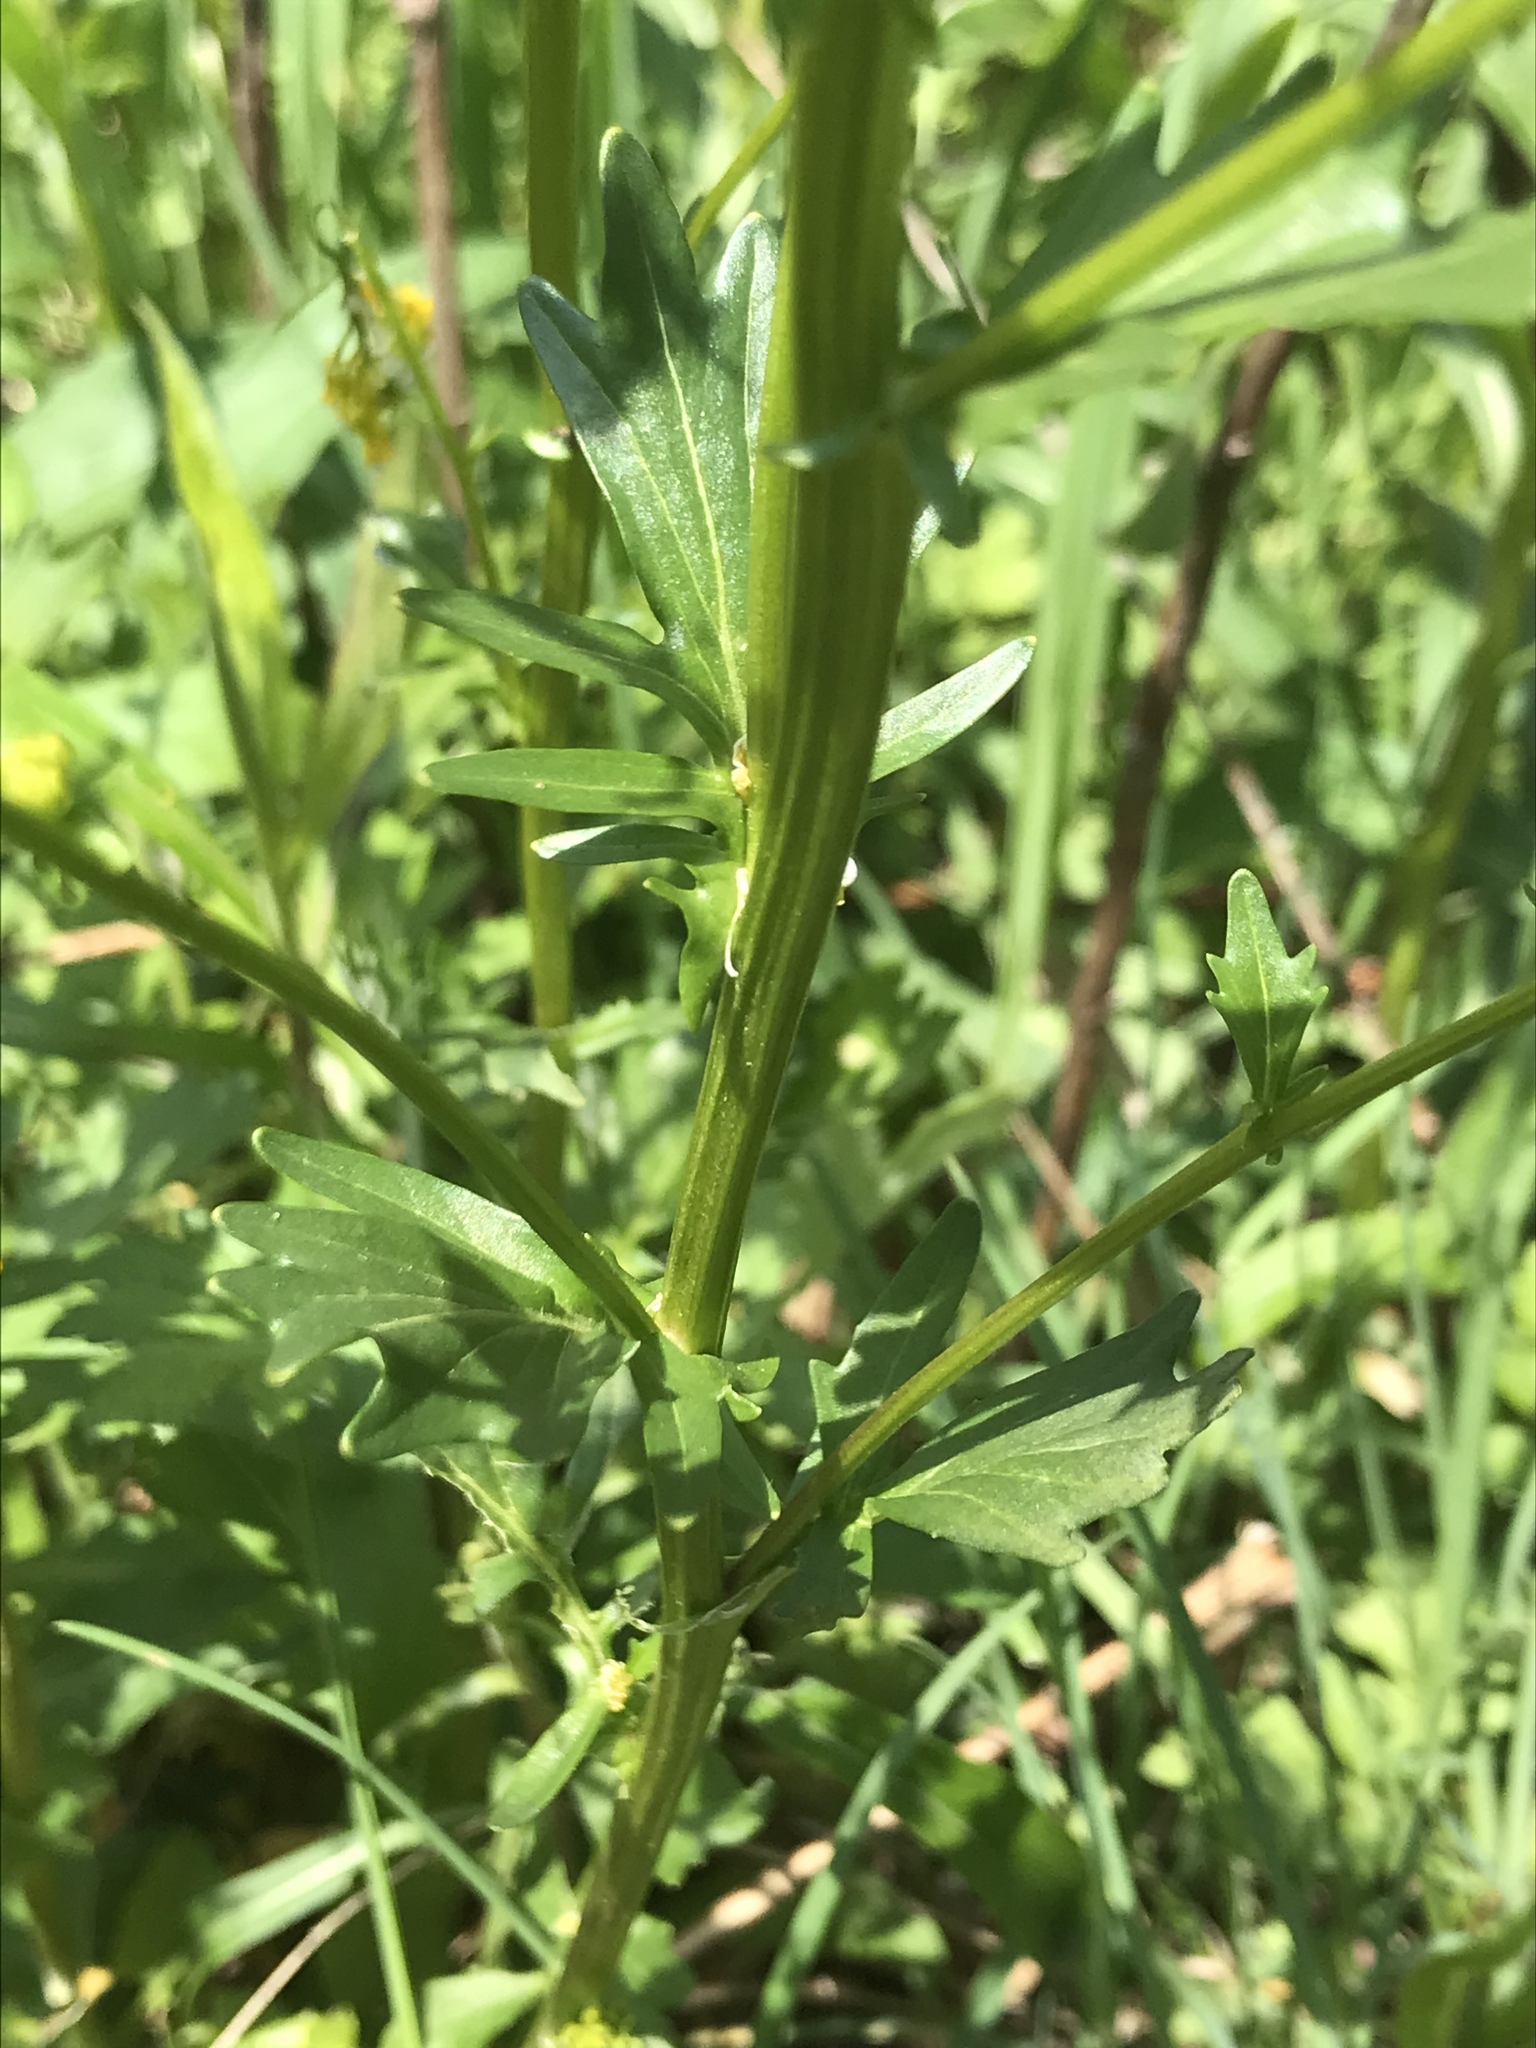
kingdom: Plantae
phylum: Tracheophyta
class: Magnoliopsida
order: Brassicales
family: Brassicaceae
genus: Barbarea
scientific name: Barbarea vulgaris
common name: Cressy-greens
